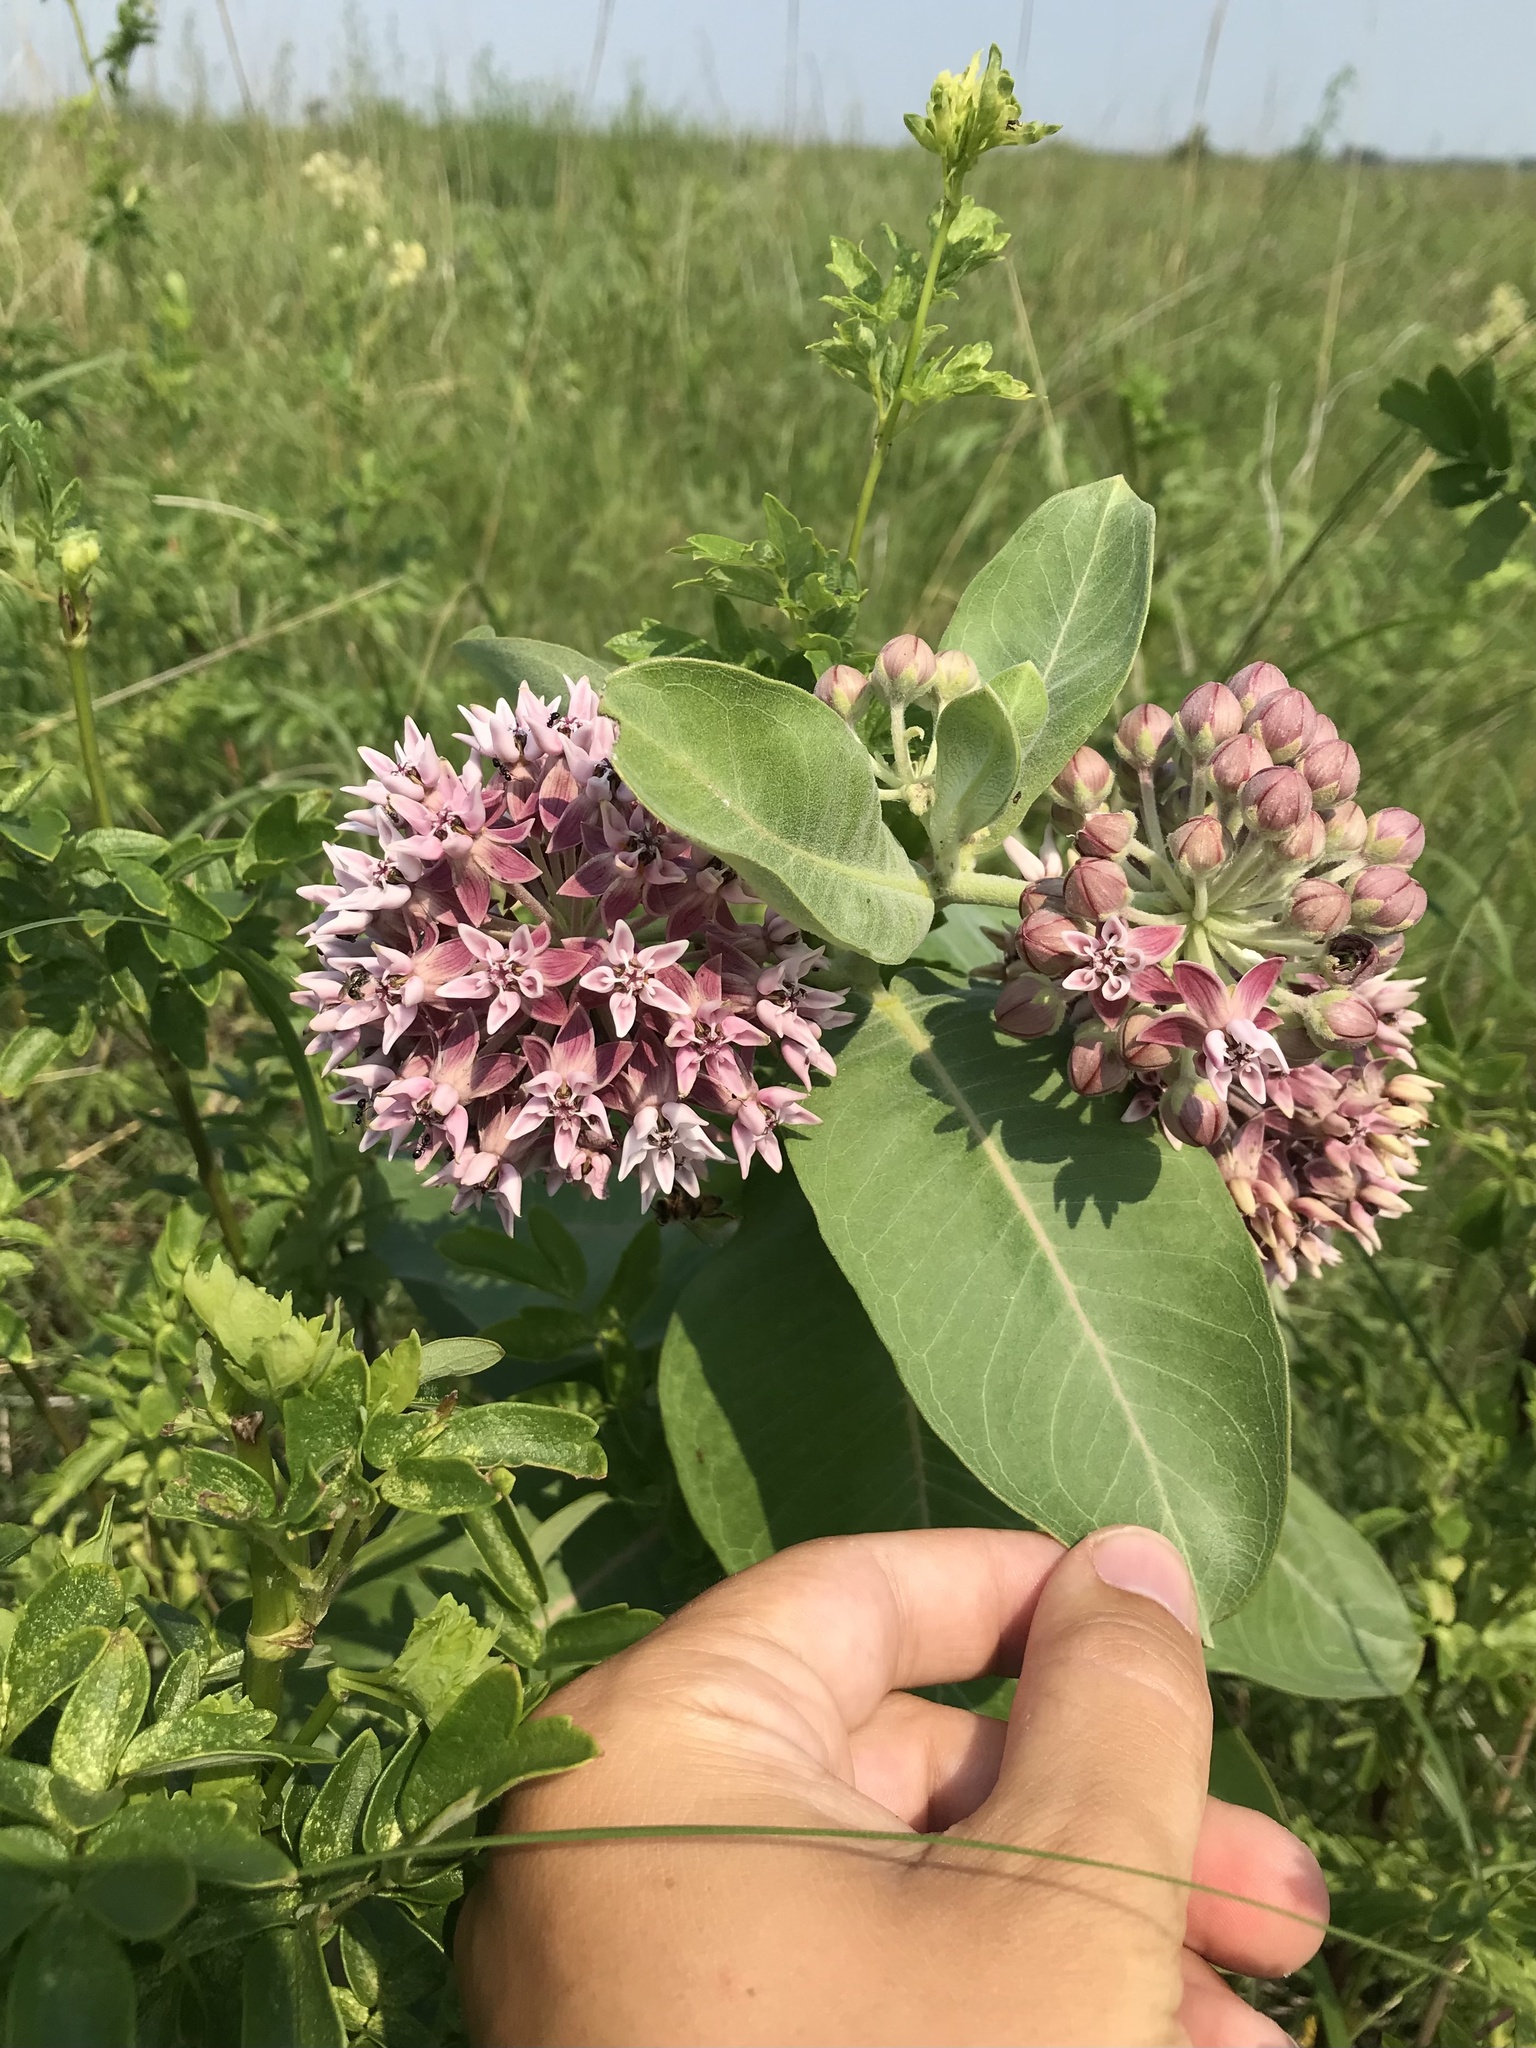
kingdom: Plantae
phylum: Tracheophyta
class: Magnoliopsida
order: Gentianales
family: Apocynaceae
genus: Asclepias
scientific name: Asclepias
